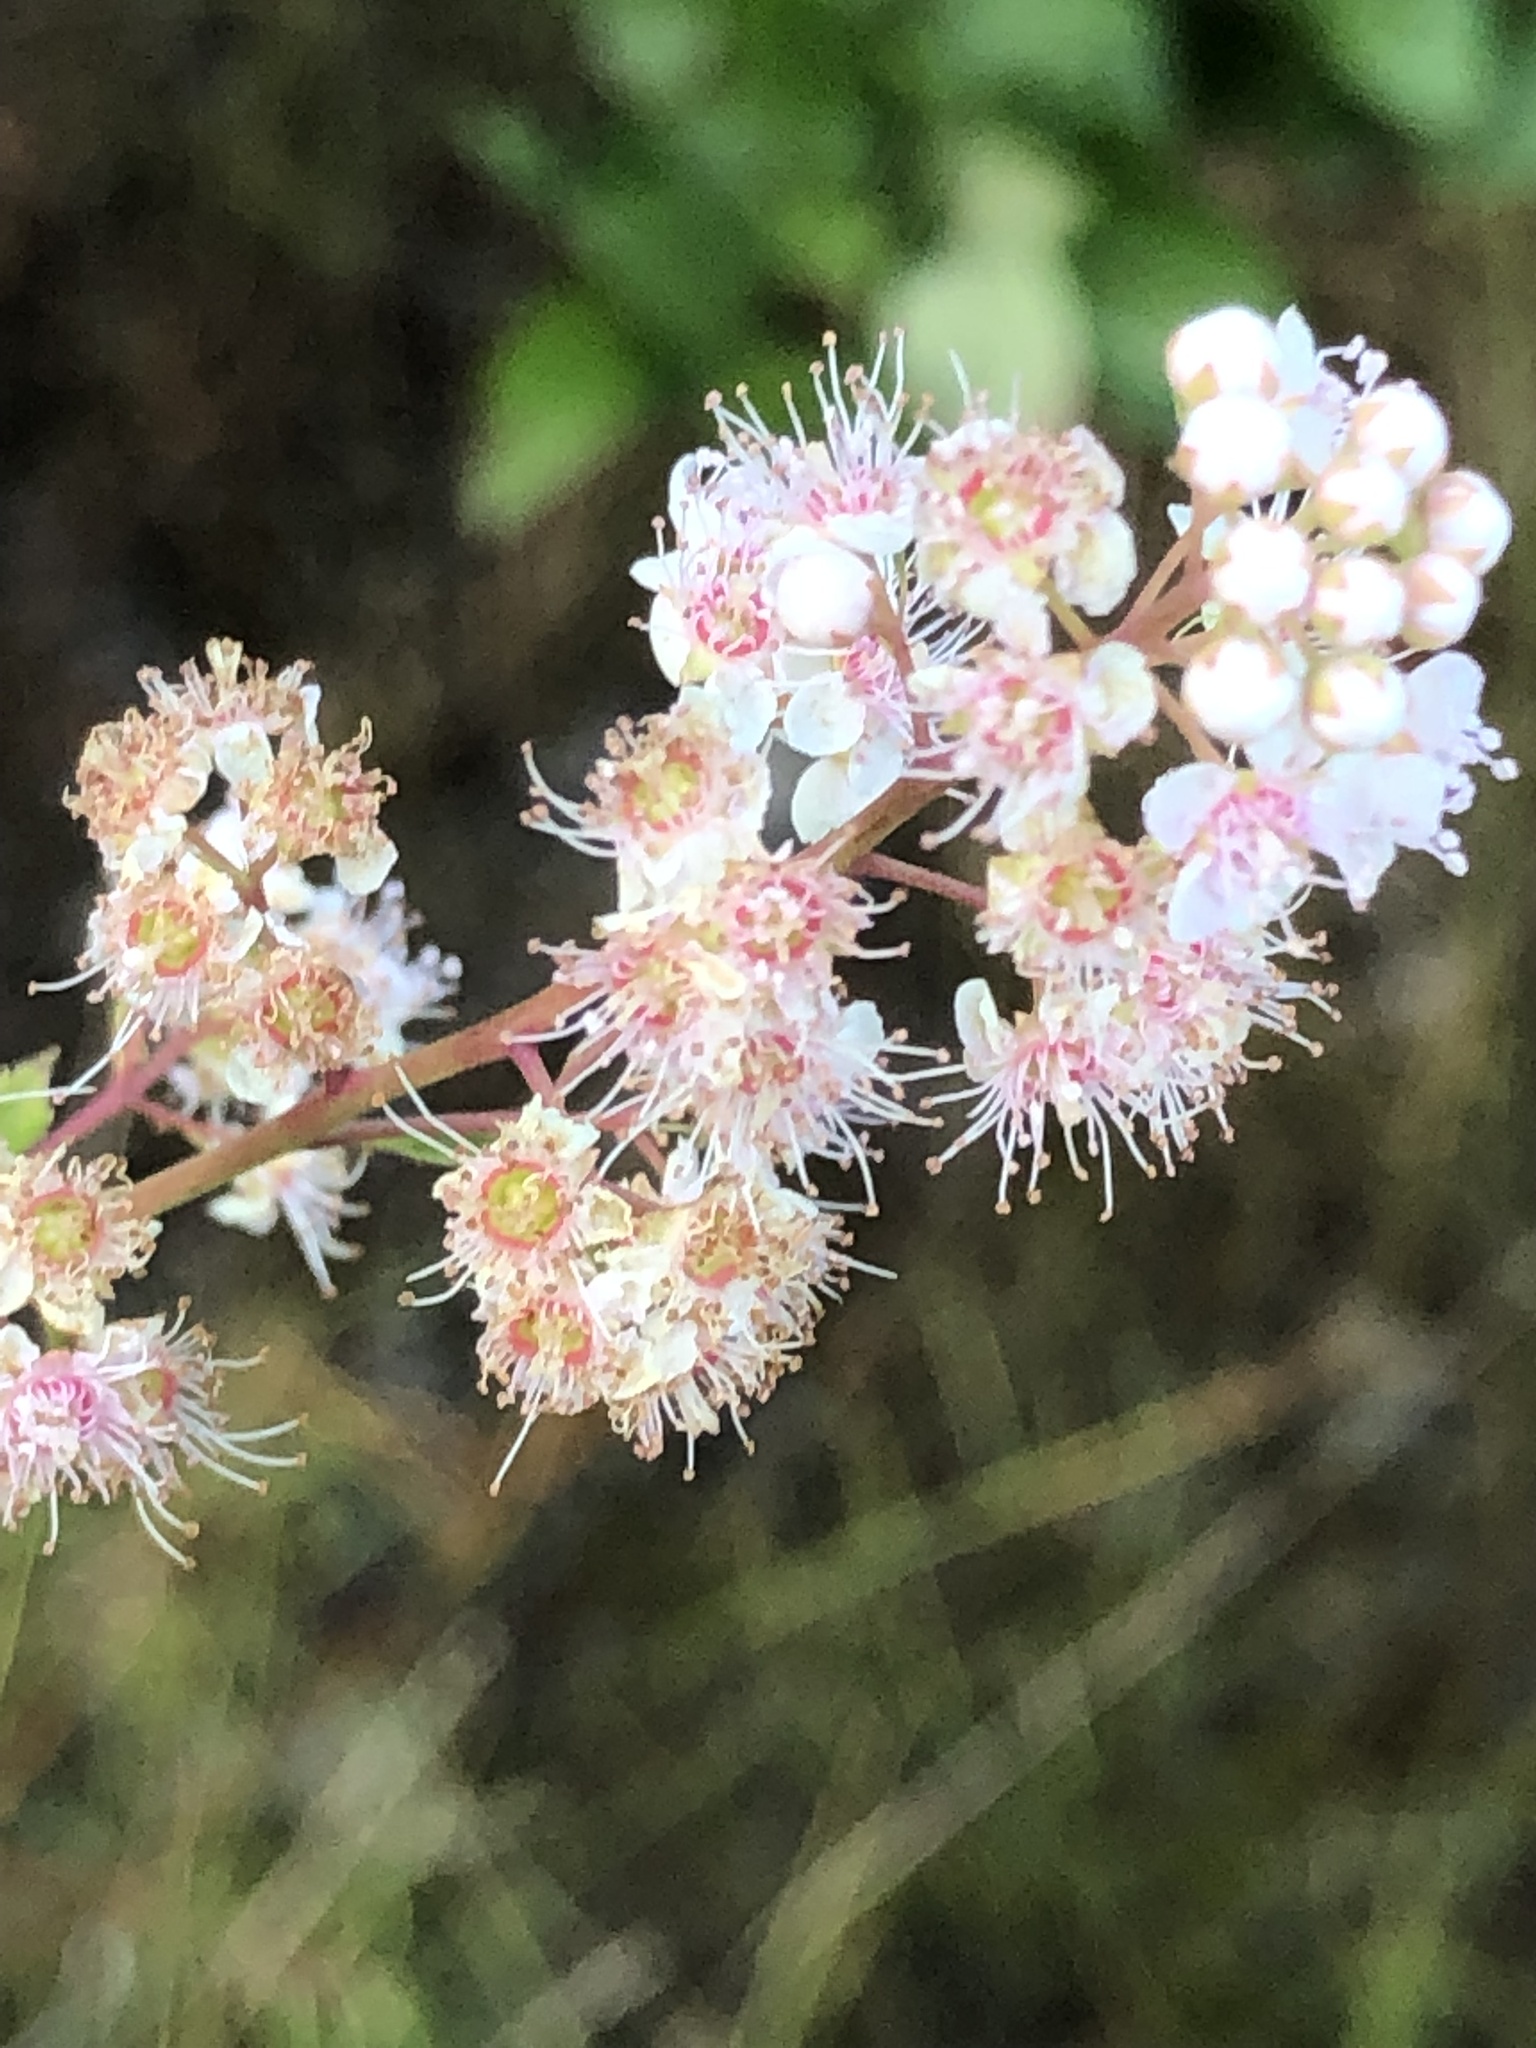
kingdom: Plantae
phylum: Tracheophyta
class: Magnoliopsida
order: Rosales
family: Rosaceae
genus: Spiraea
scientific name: Spiraea alba
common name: Pale bridewort
